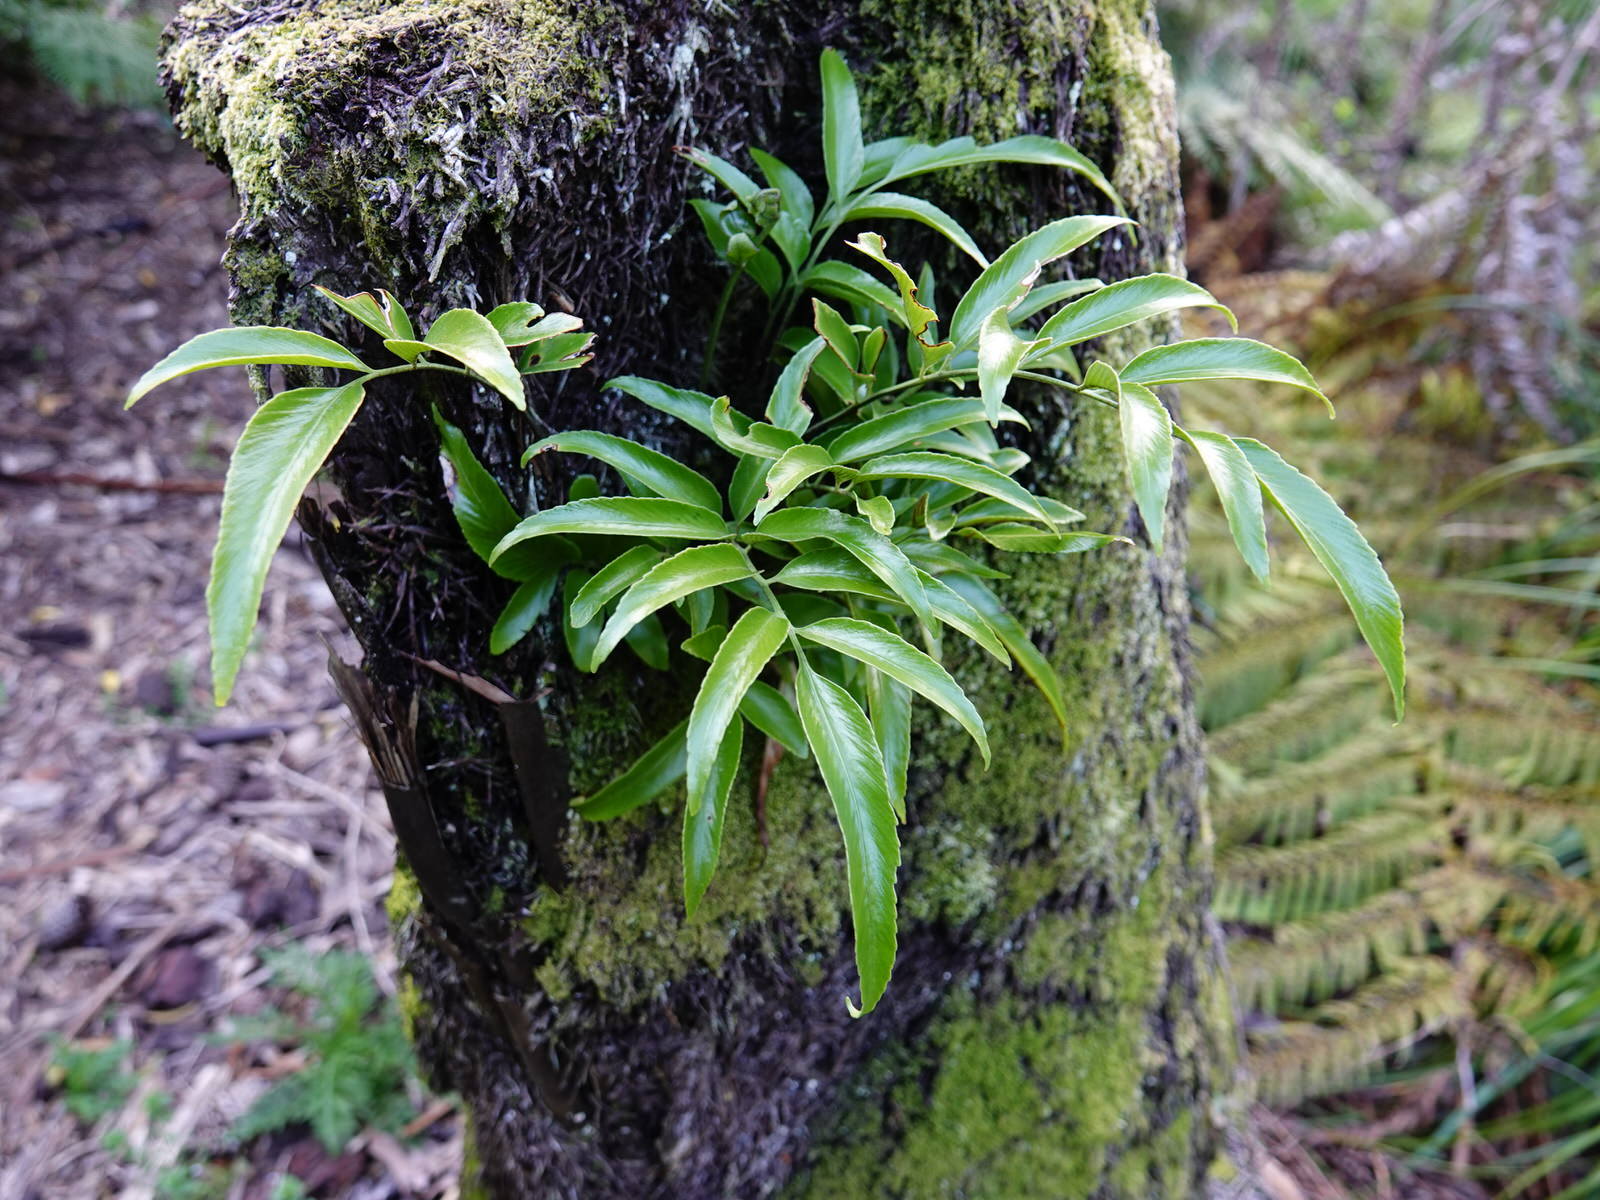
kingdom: Plantae
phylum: Tracheophyta
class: Polypodiopsida
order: Polypodiales
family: Aspleniaceae
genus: Asplenium
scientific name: Asplenium oblongifolium
